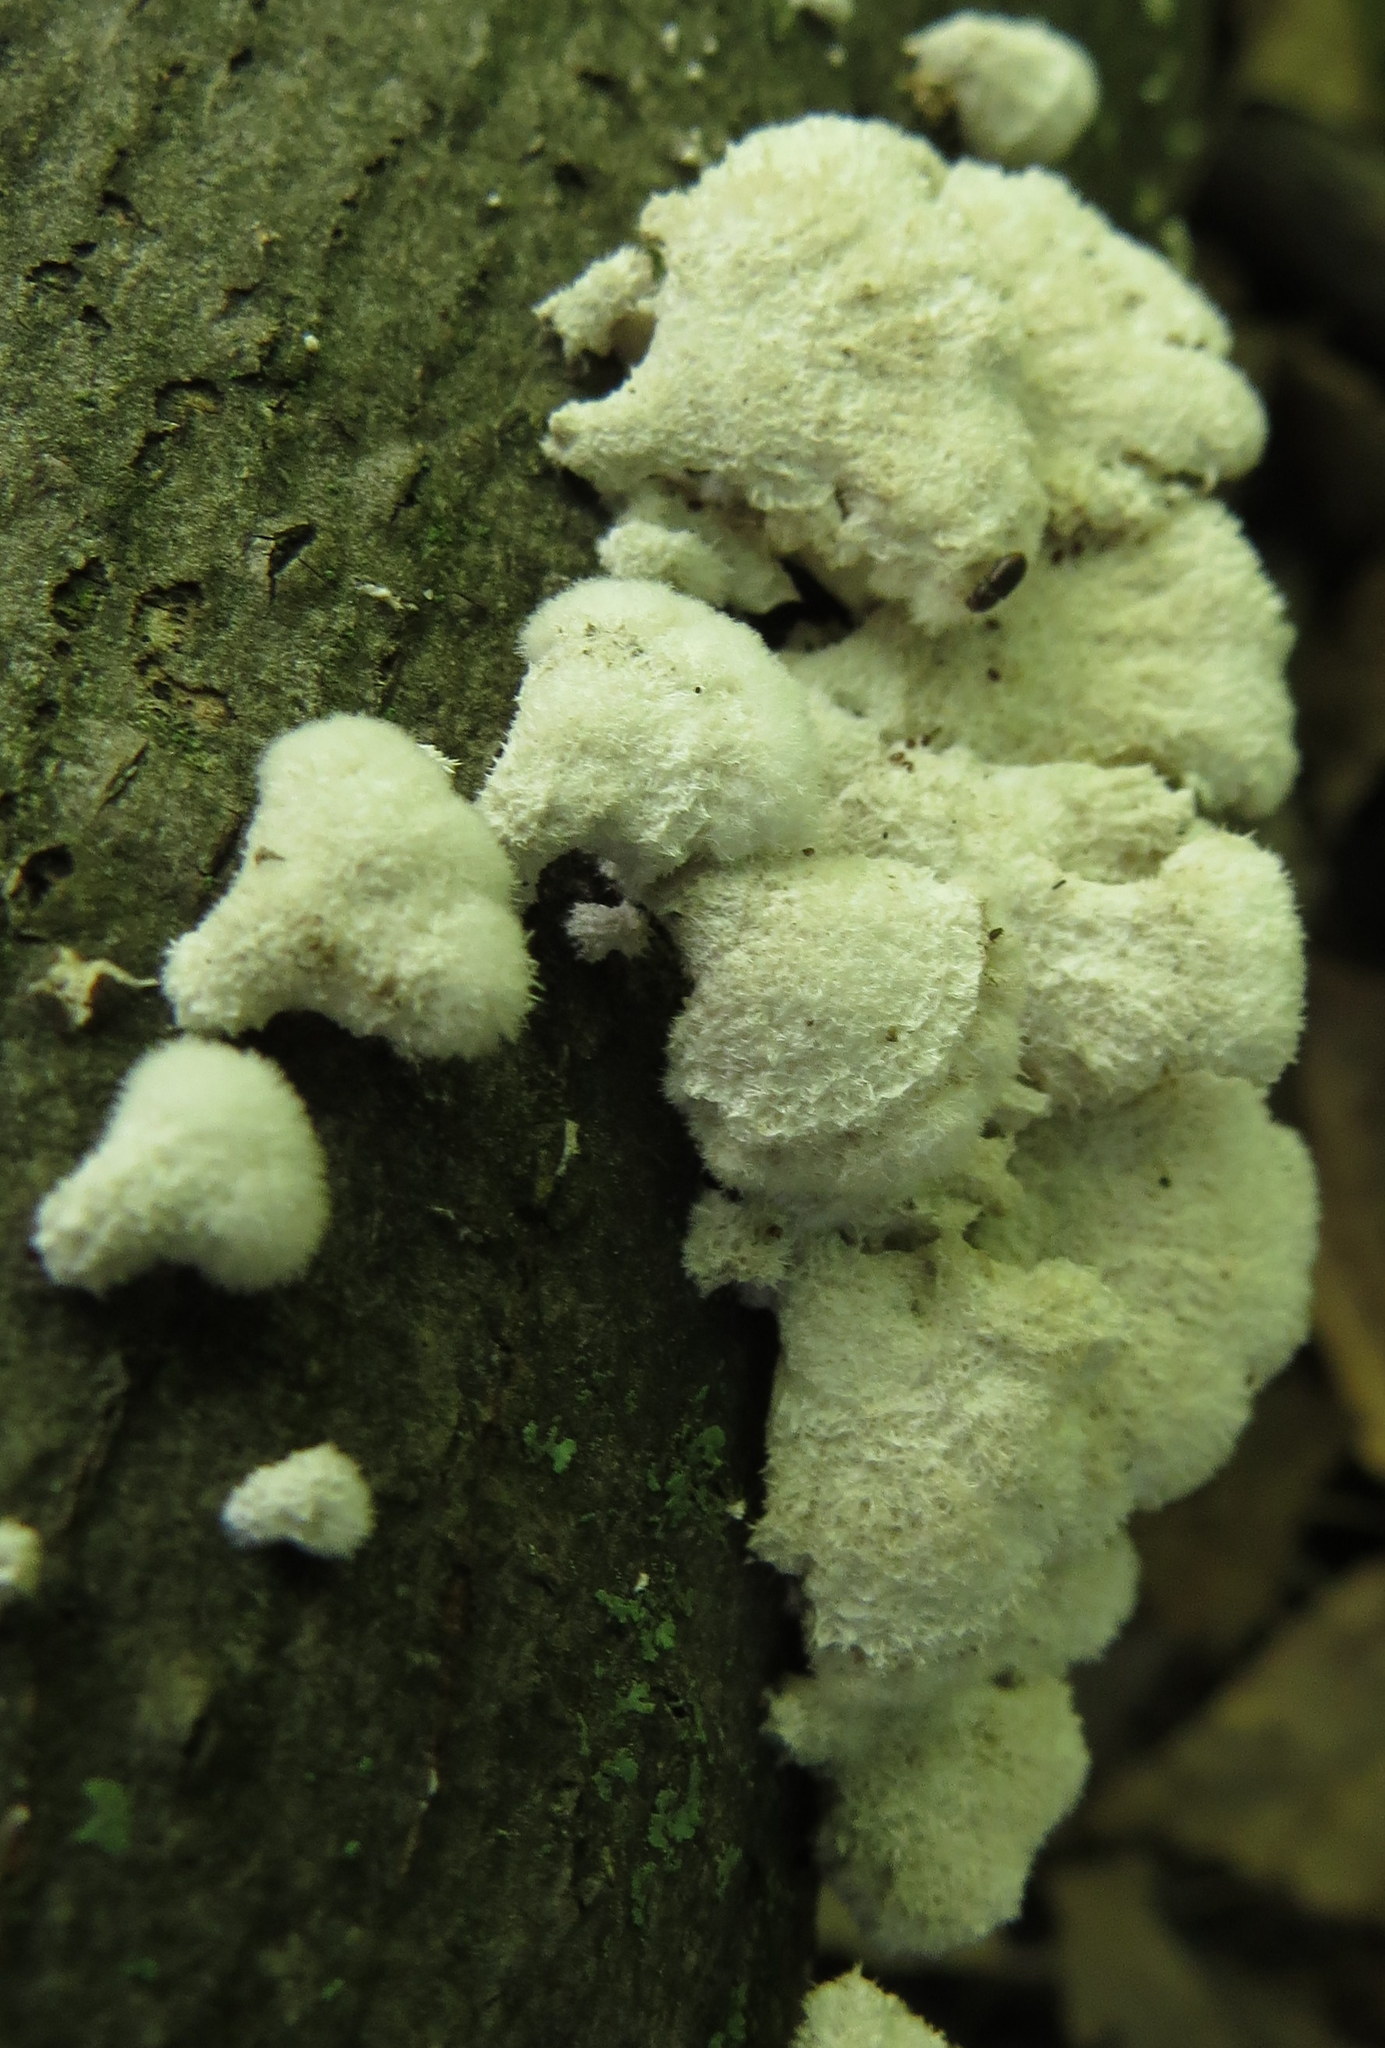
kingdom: Fungi
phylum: Basidiomycota
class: Agaricomycetes
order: Agaricales
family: Schizophyllaceae
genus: Schizophyllum
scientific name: Schizophyllum commune
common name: Common porecrust
